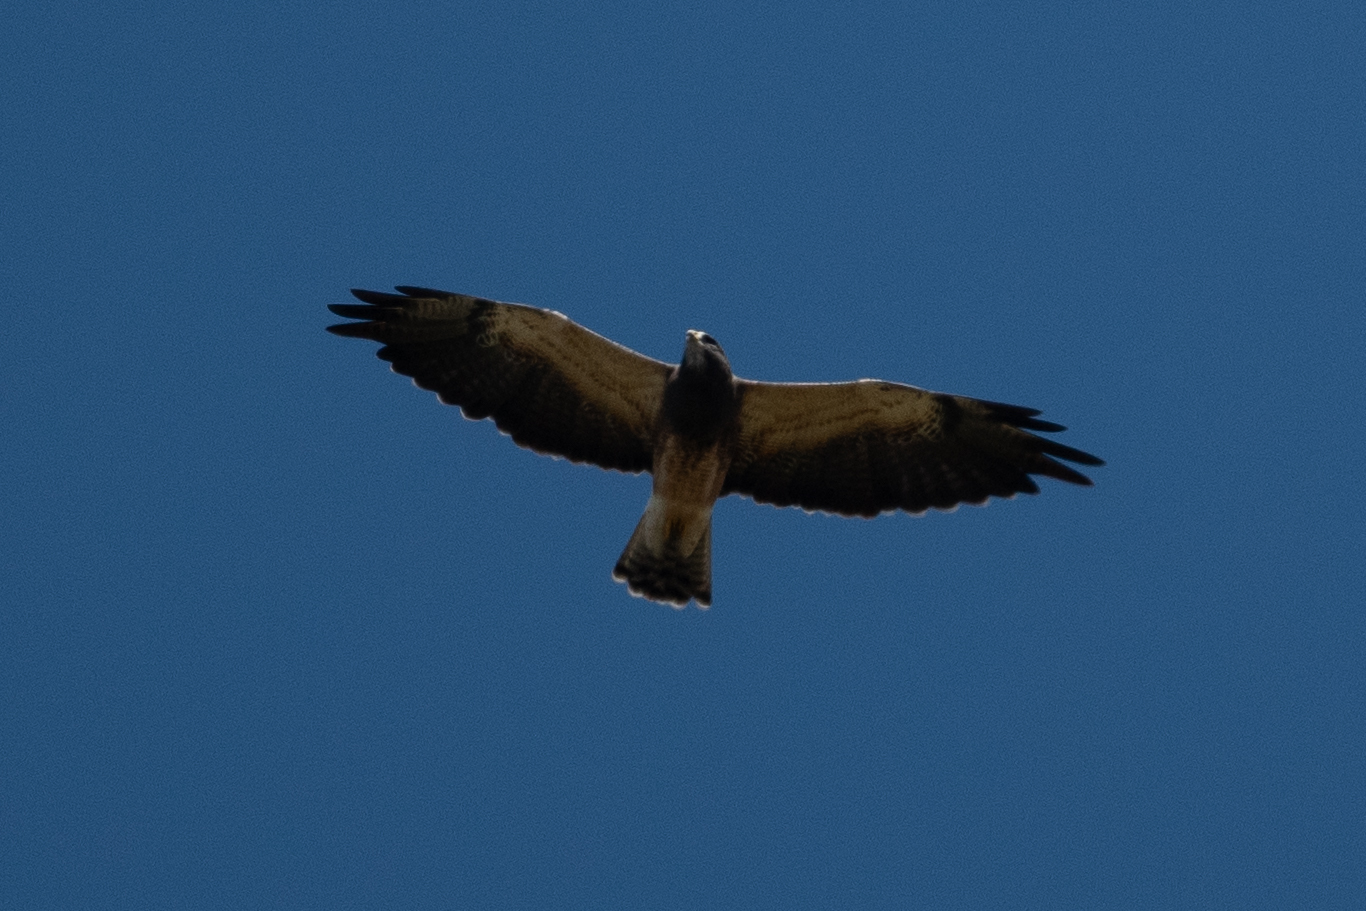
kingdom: Animalia
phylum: Chordata
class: Aves
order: Accipitriformes
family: Accipitridae
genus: Buteo
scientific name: Buteo swainsoni
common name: Swainson's hawk
